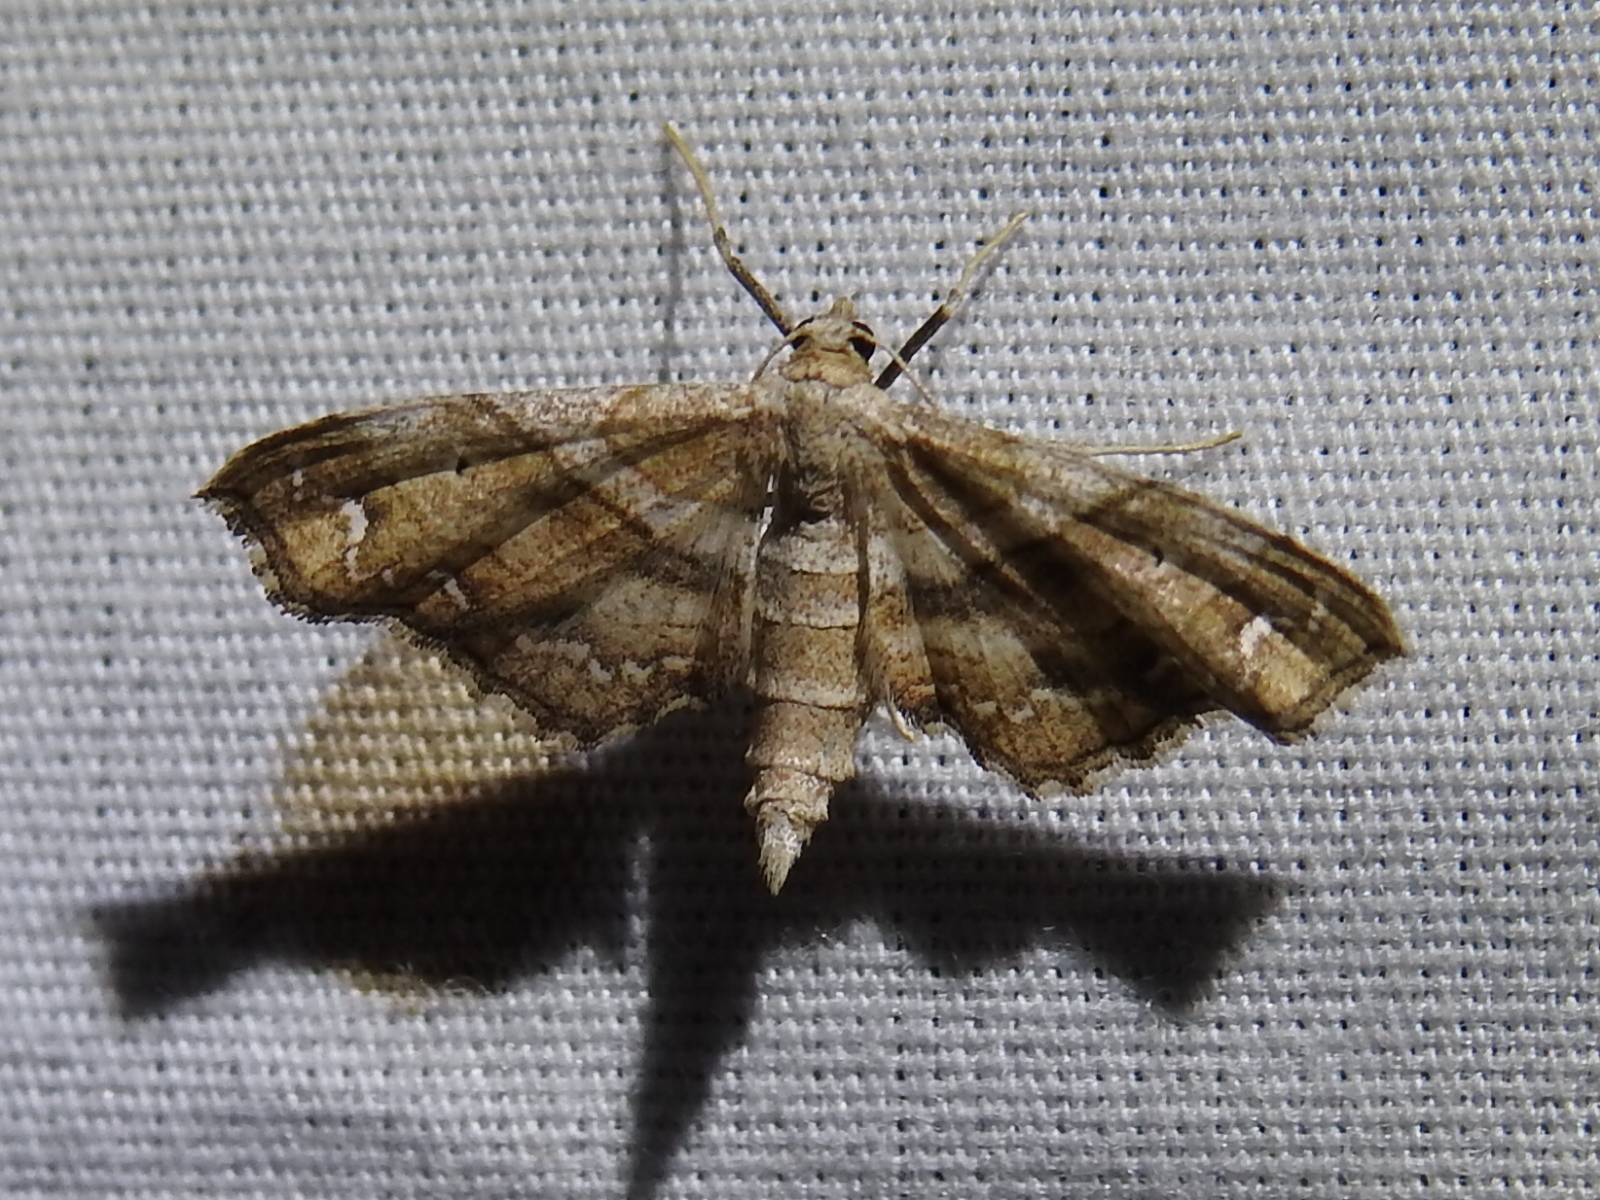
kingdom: Animalia
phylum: Arthropoda
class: Insecta
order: Lepidoptera
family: Geometridae
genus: Odontoptila
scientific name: Odontoptila obrimo
